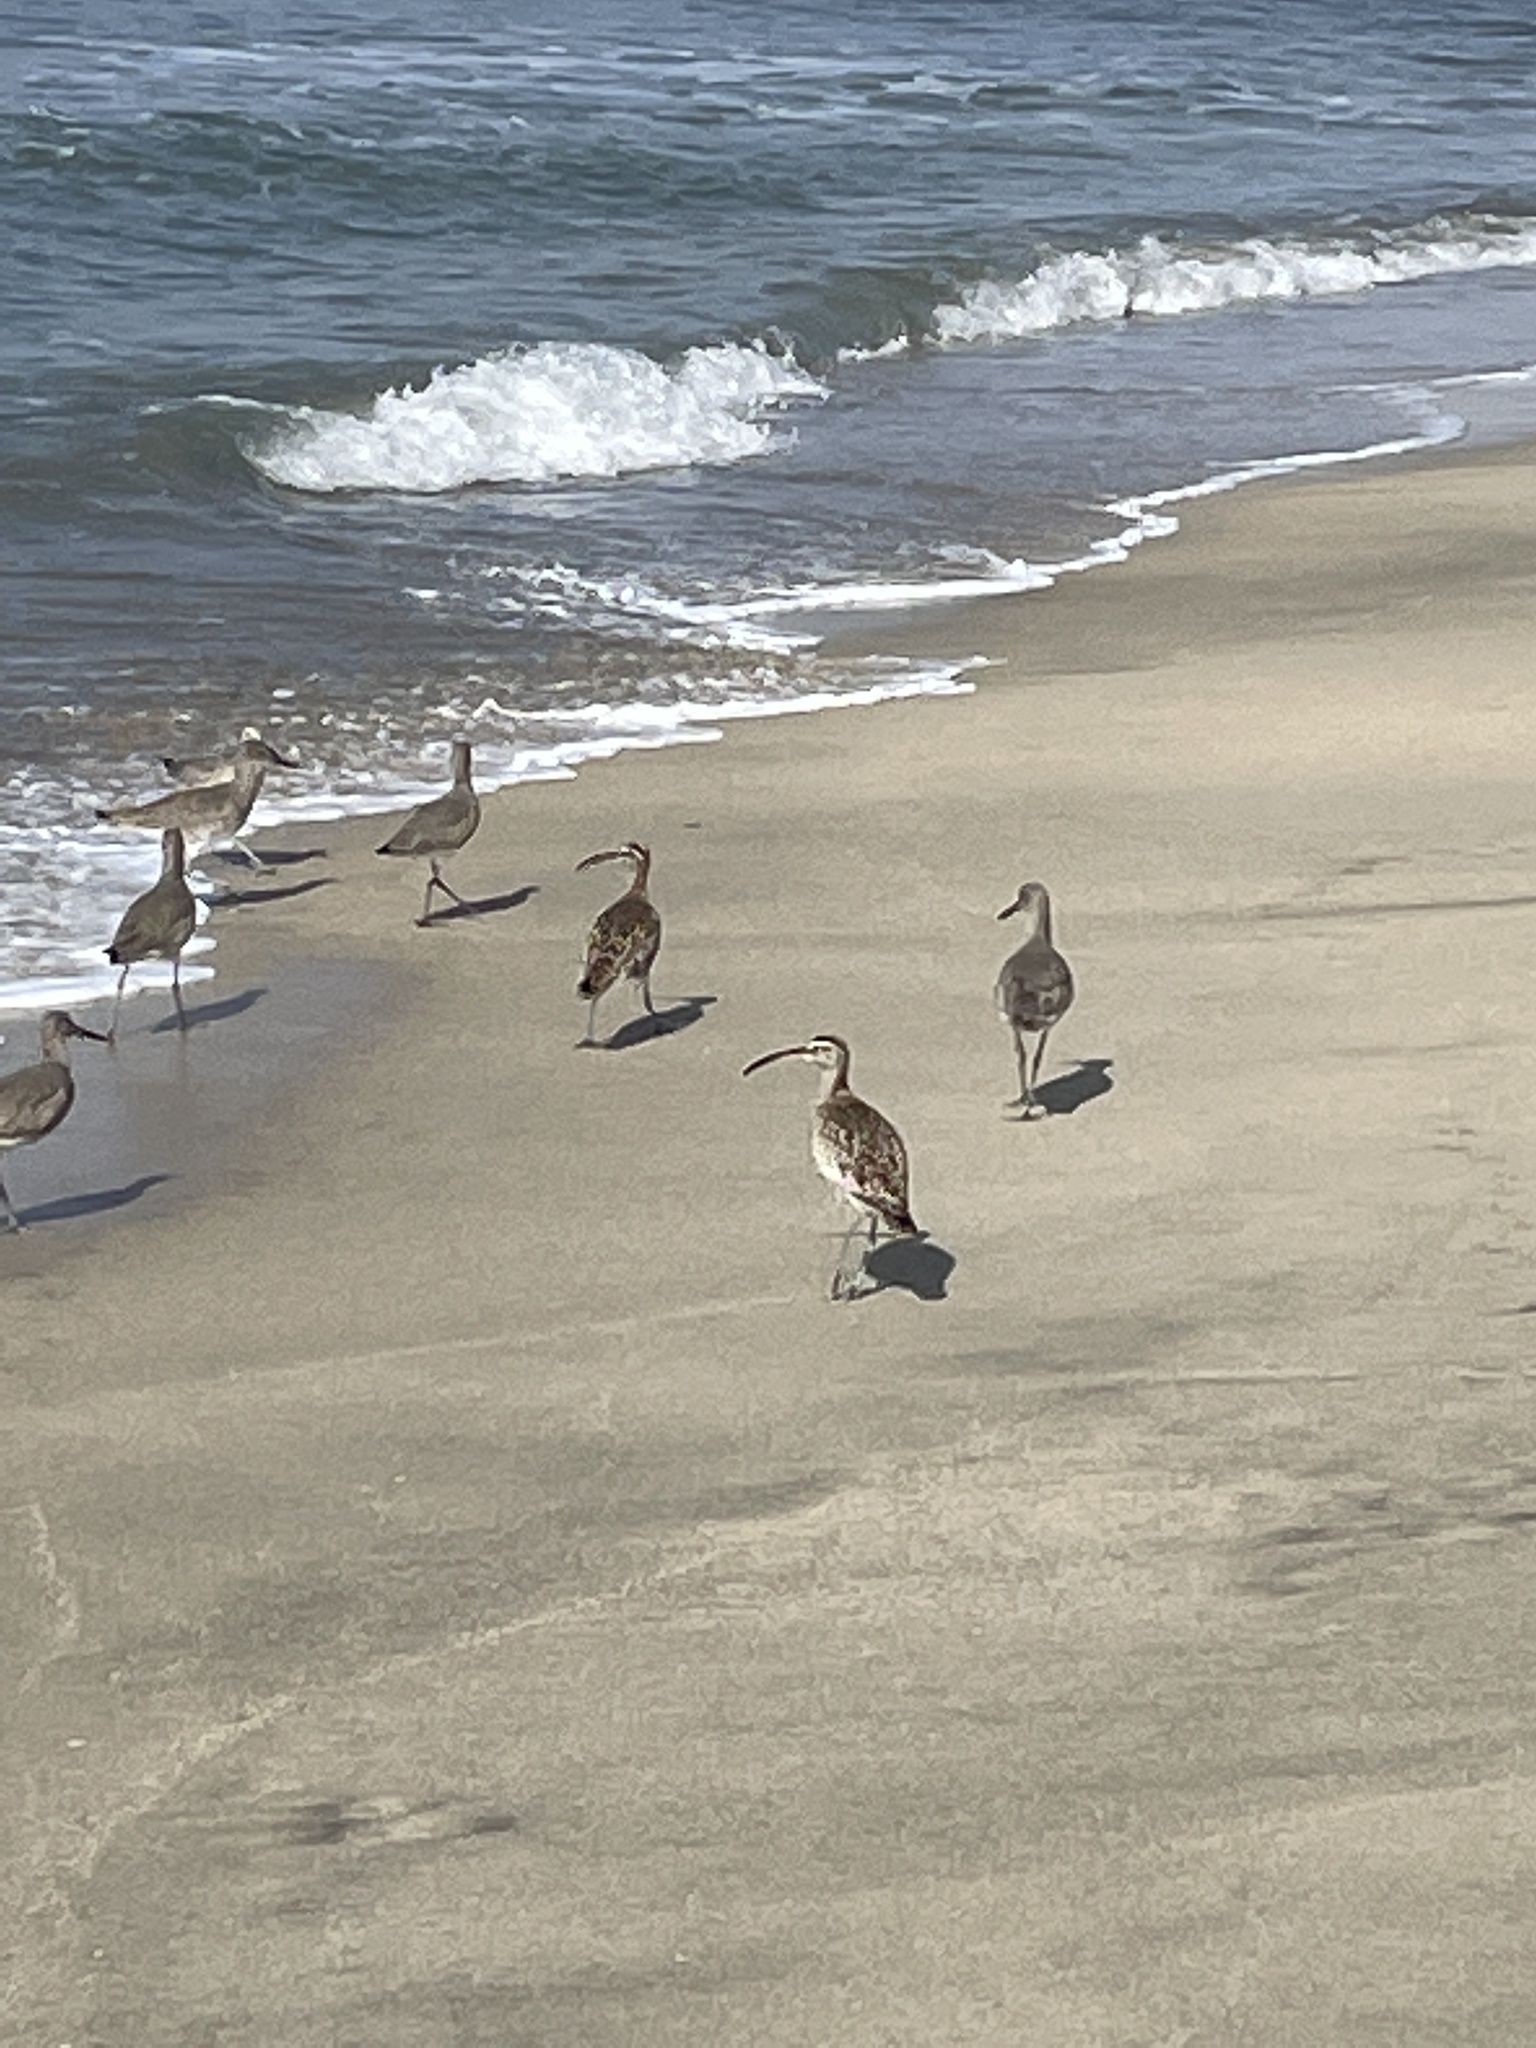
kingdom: Animalia
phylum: Chordata
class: Aves
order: Charadriiformes
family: Scolopacidae
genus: Numenius
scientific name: Numenius phaeopus
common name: Whimbrel
